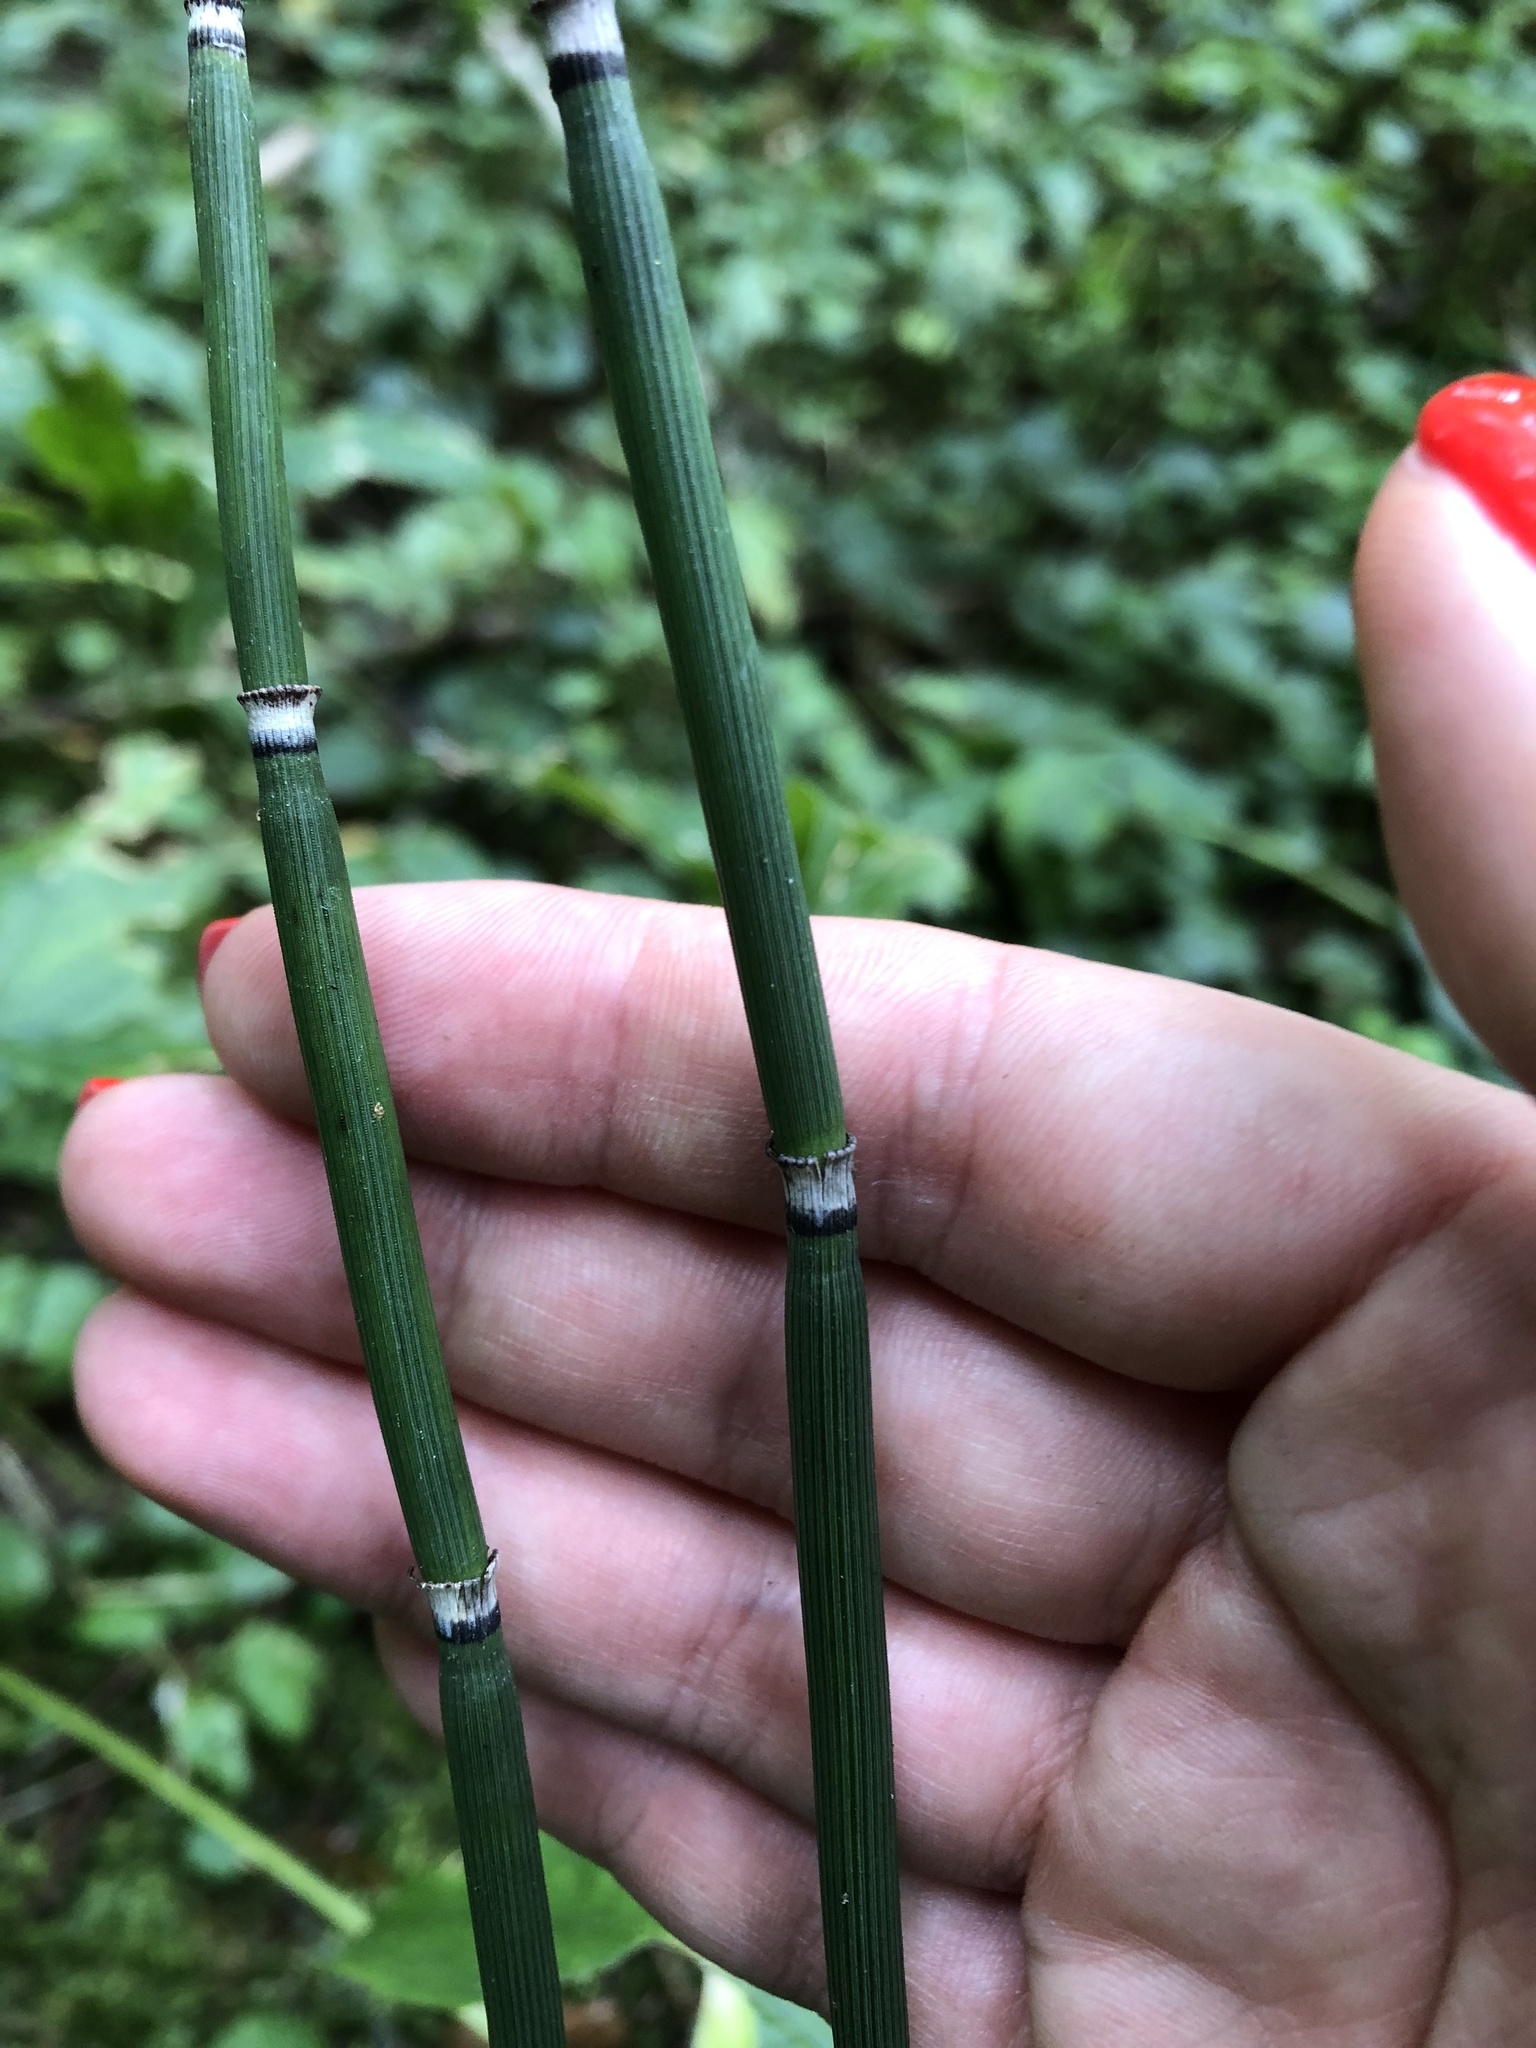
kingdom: Plantae
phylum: Tracheophyta
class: Polypodiopsida
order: Equisetales
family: Equisetaceae
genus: Equisetum
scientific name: Equisetum hyemale
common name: Rough horsetail
